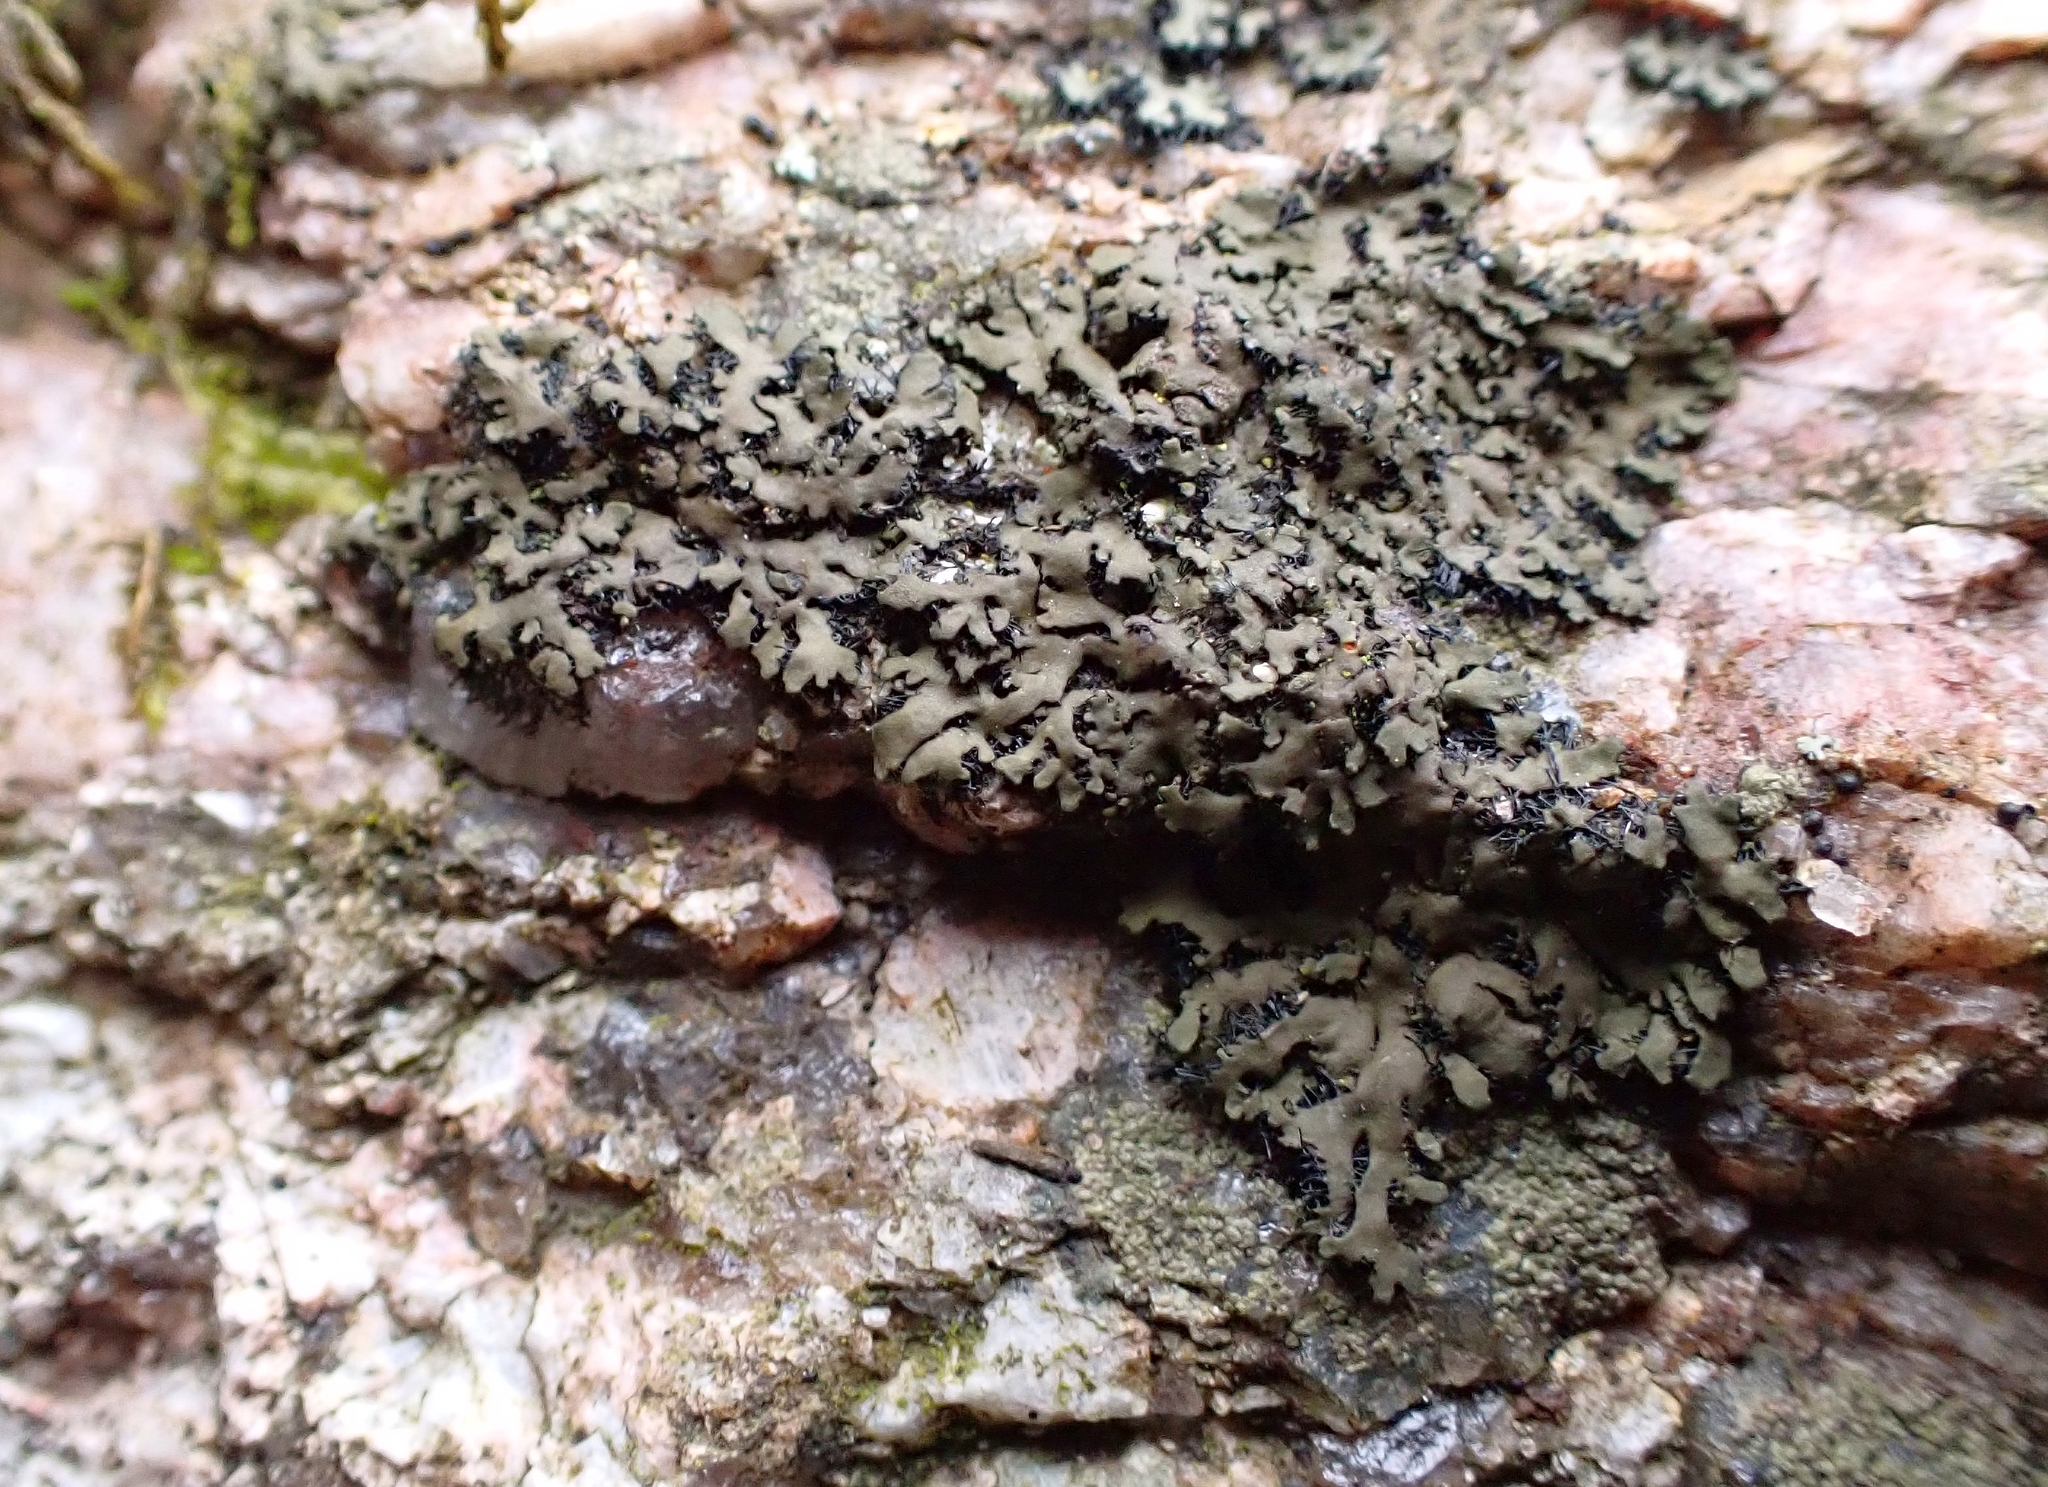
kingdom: Fungi
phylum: Ascomycota
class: Lecanoromycetes
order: Caliciales
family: Physciaceae
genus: Phaeophyscia
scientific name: Phaeophyscia rubropulchra
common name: Orange-cored shadow lichen
